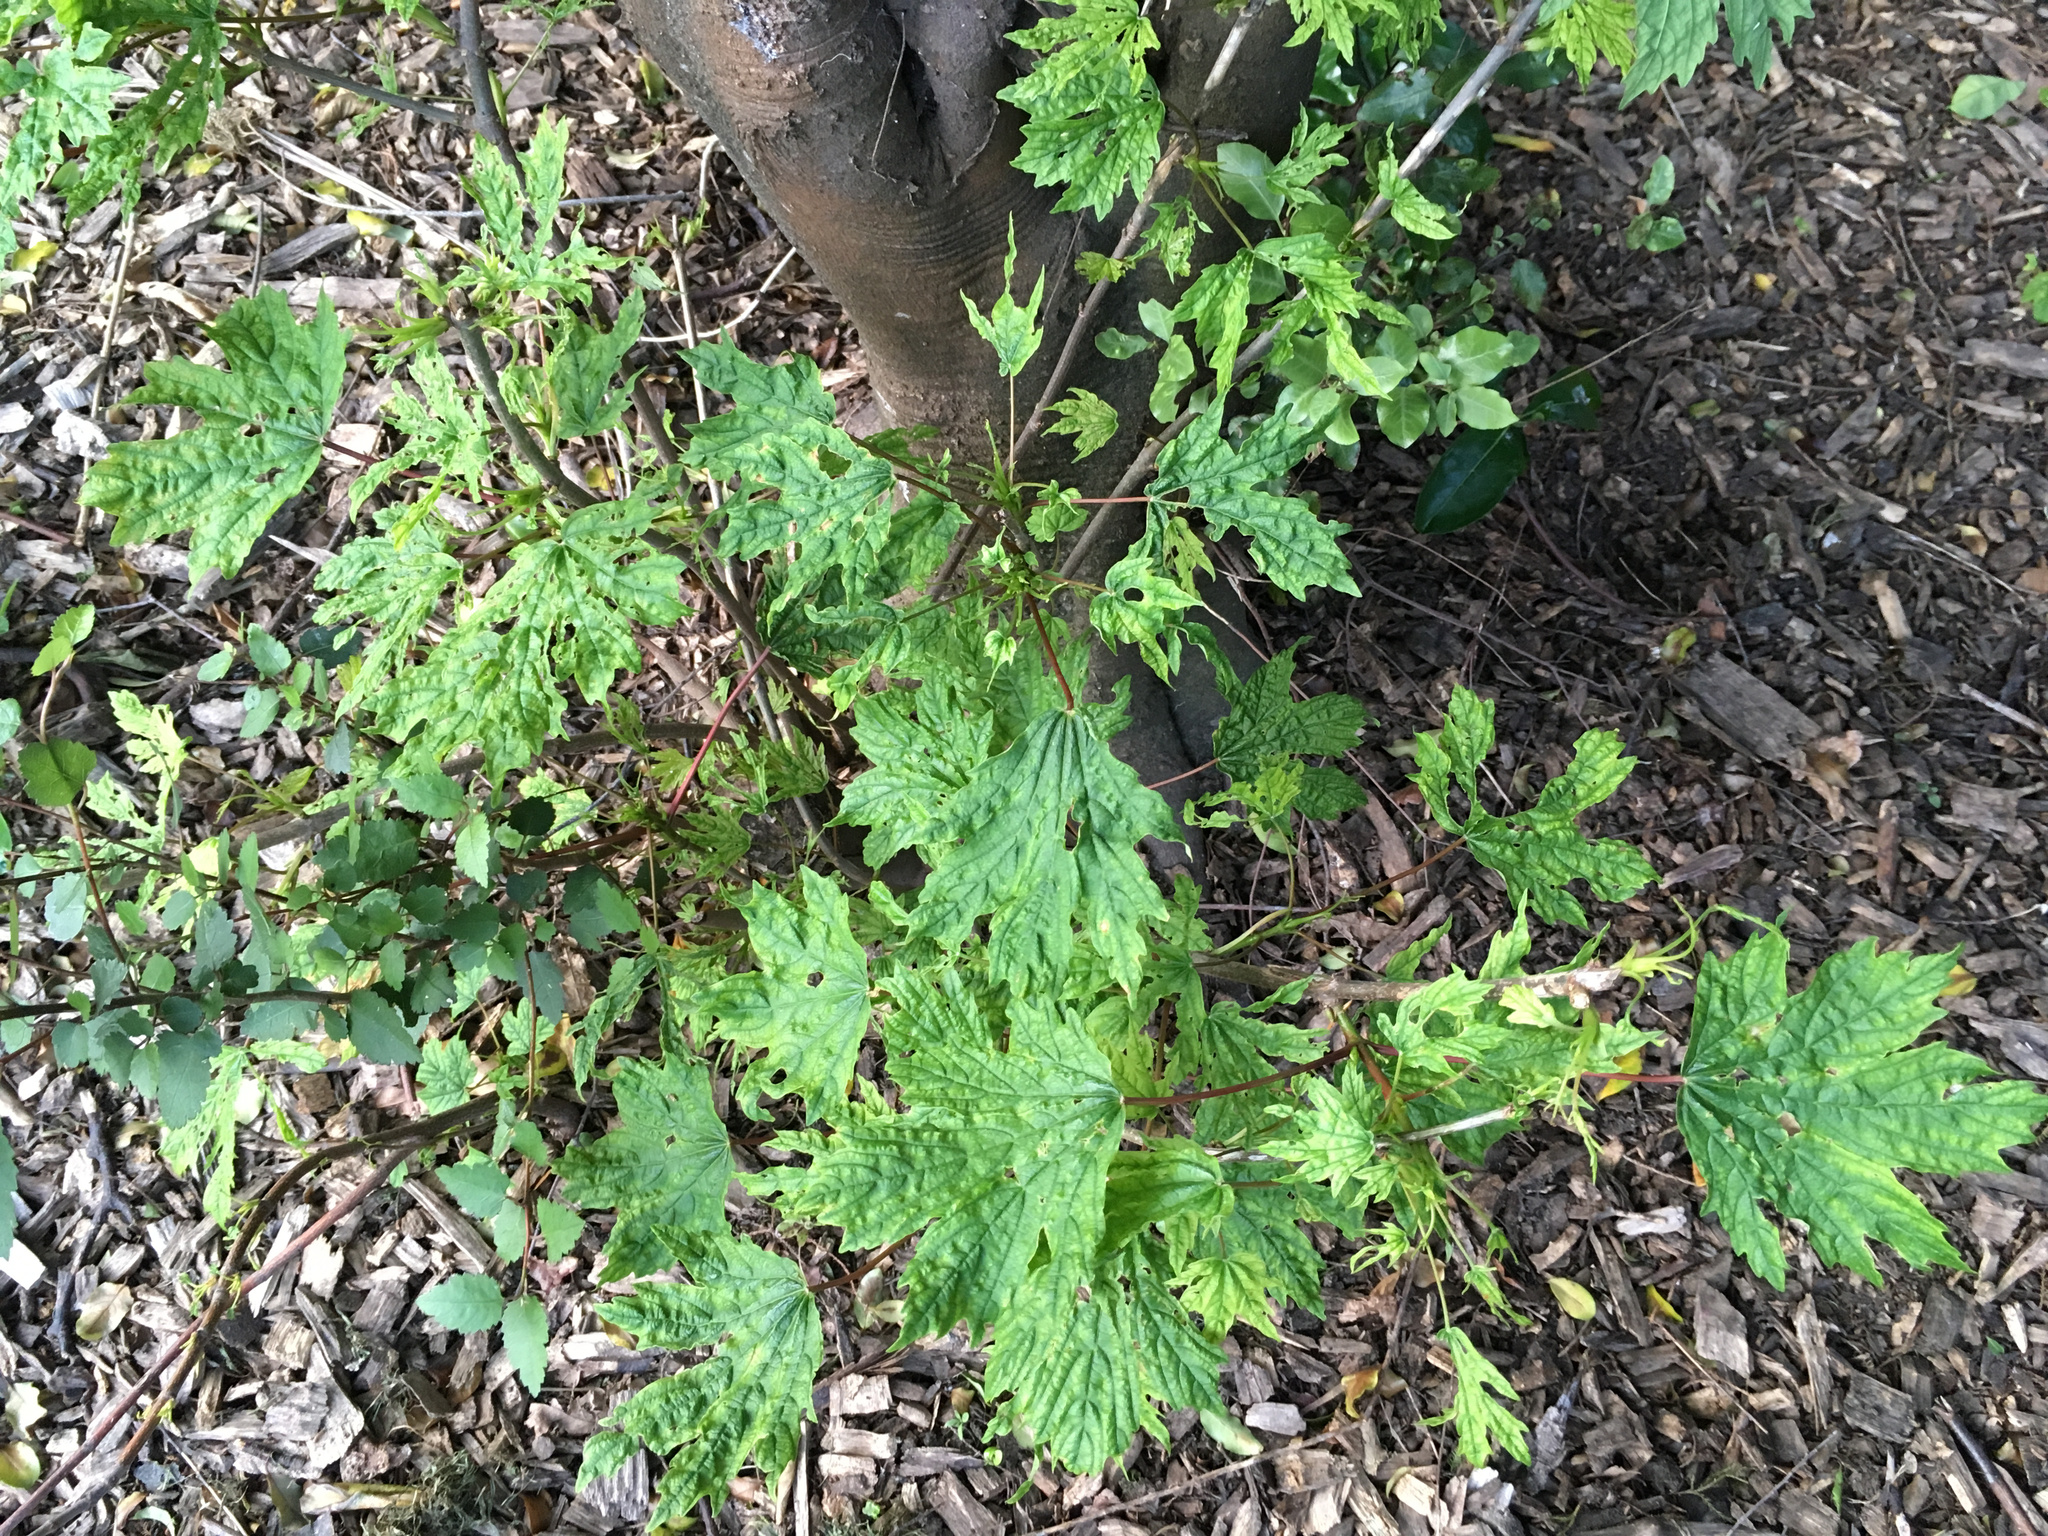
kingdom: Plantae
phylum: Tracheophyta
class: Magnoliopsida
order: Sapindales
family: Sapindaceae
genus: Acer
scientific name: Acer pseudoplatanus
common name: Sycamore
